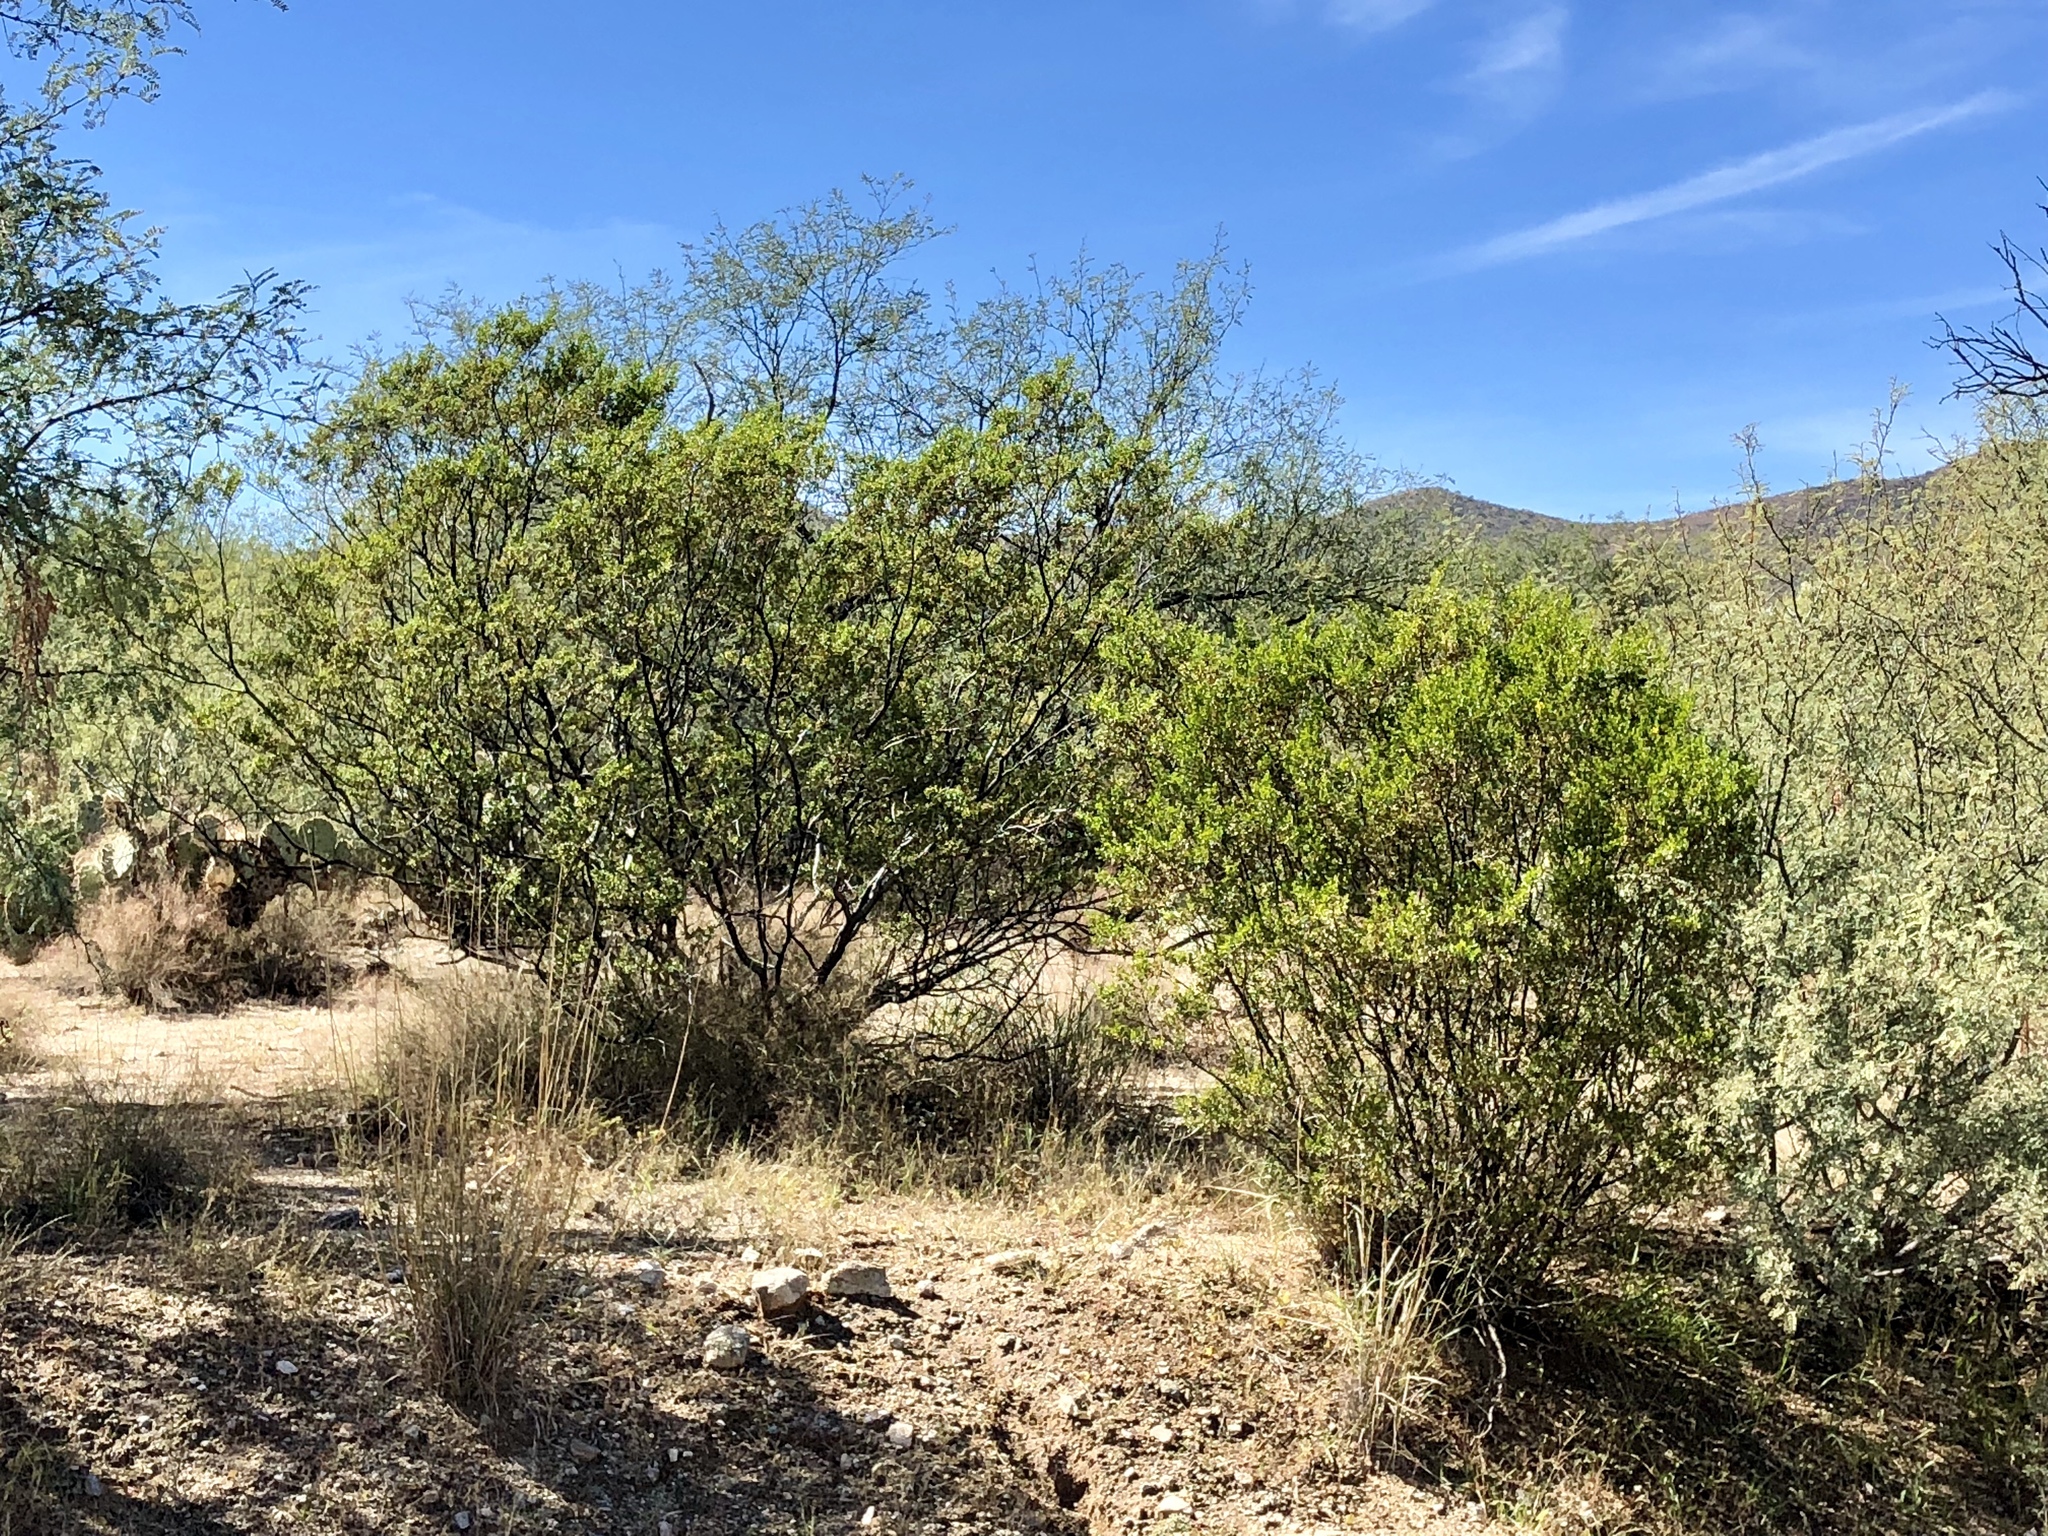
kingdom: Plantae
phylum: Tracheophyta
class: Magnoliopsida
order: Zygophyllales
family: Zygophyllaceae
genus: Larrea
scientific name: Larrea tridentata
